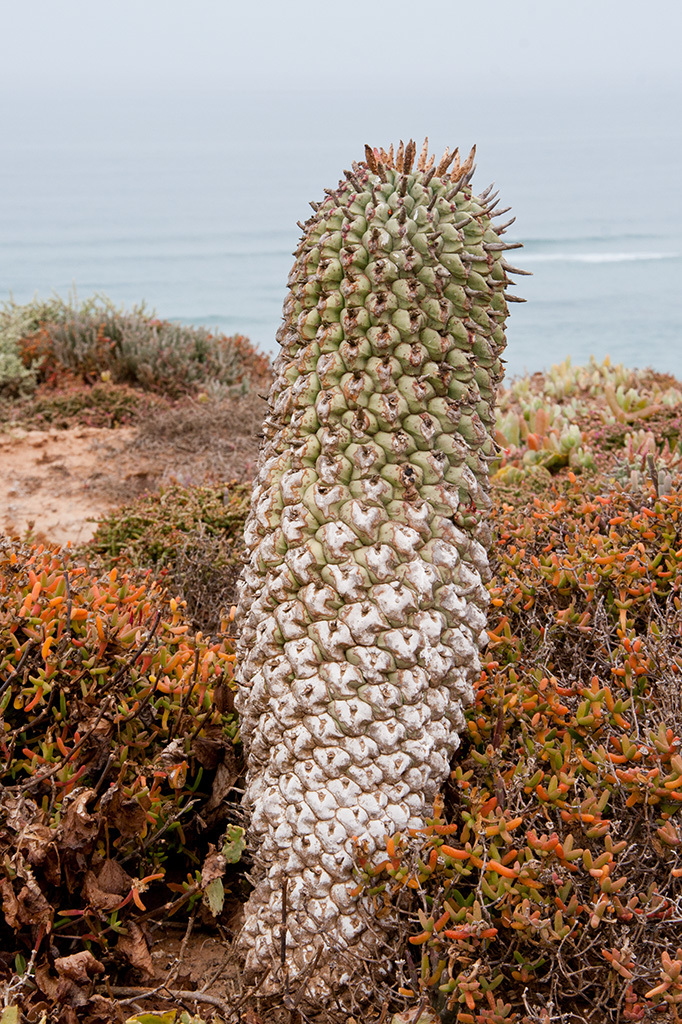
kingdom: Plantae
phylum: Tracheophyta
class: Magnoliopsida
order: Malpighiales
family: Euphorbiaceae
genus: Euphorbia
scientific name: Euphorbia schoenlandii
